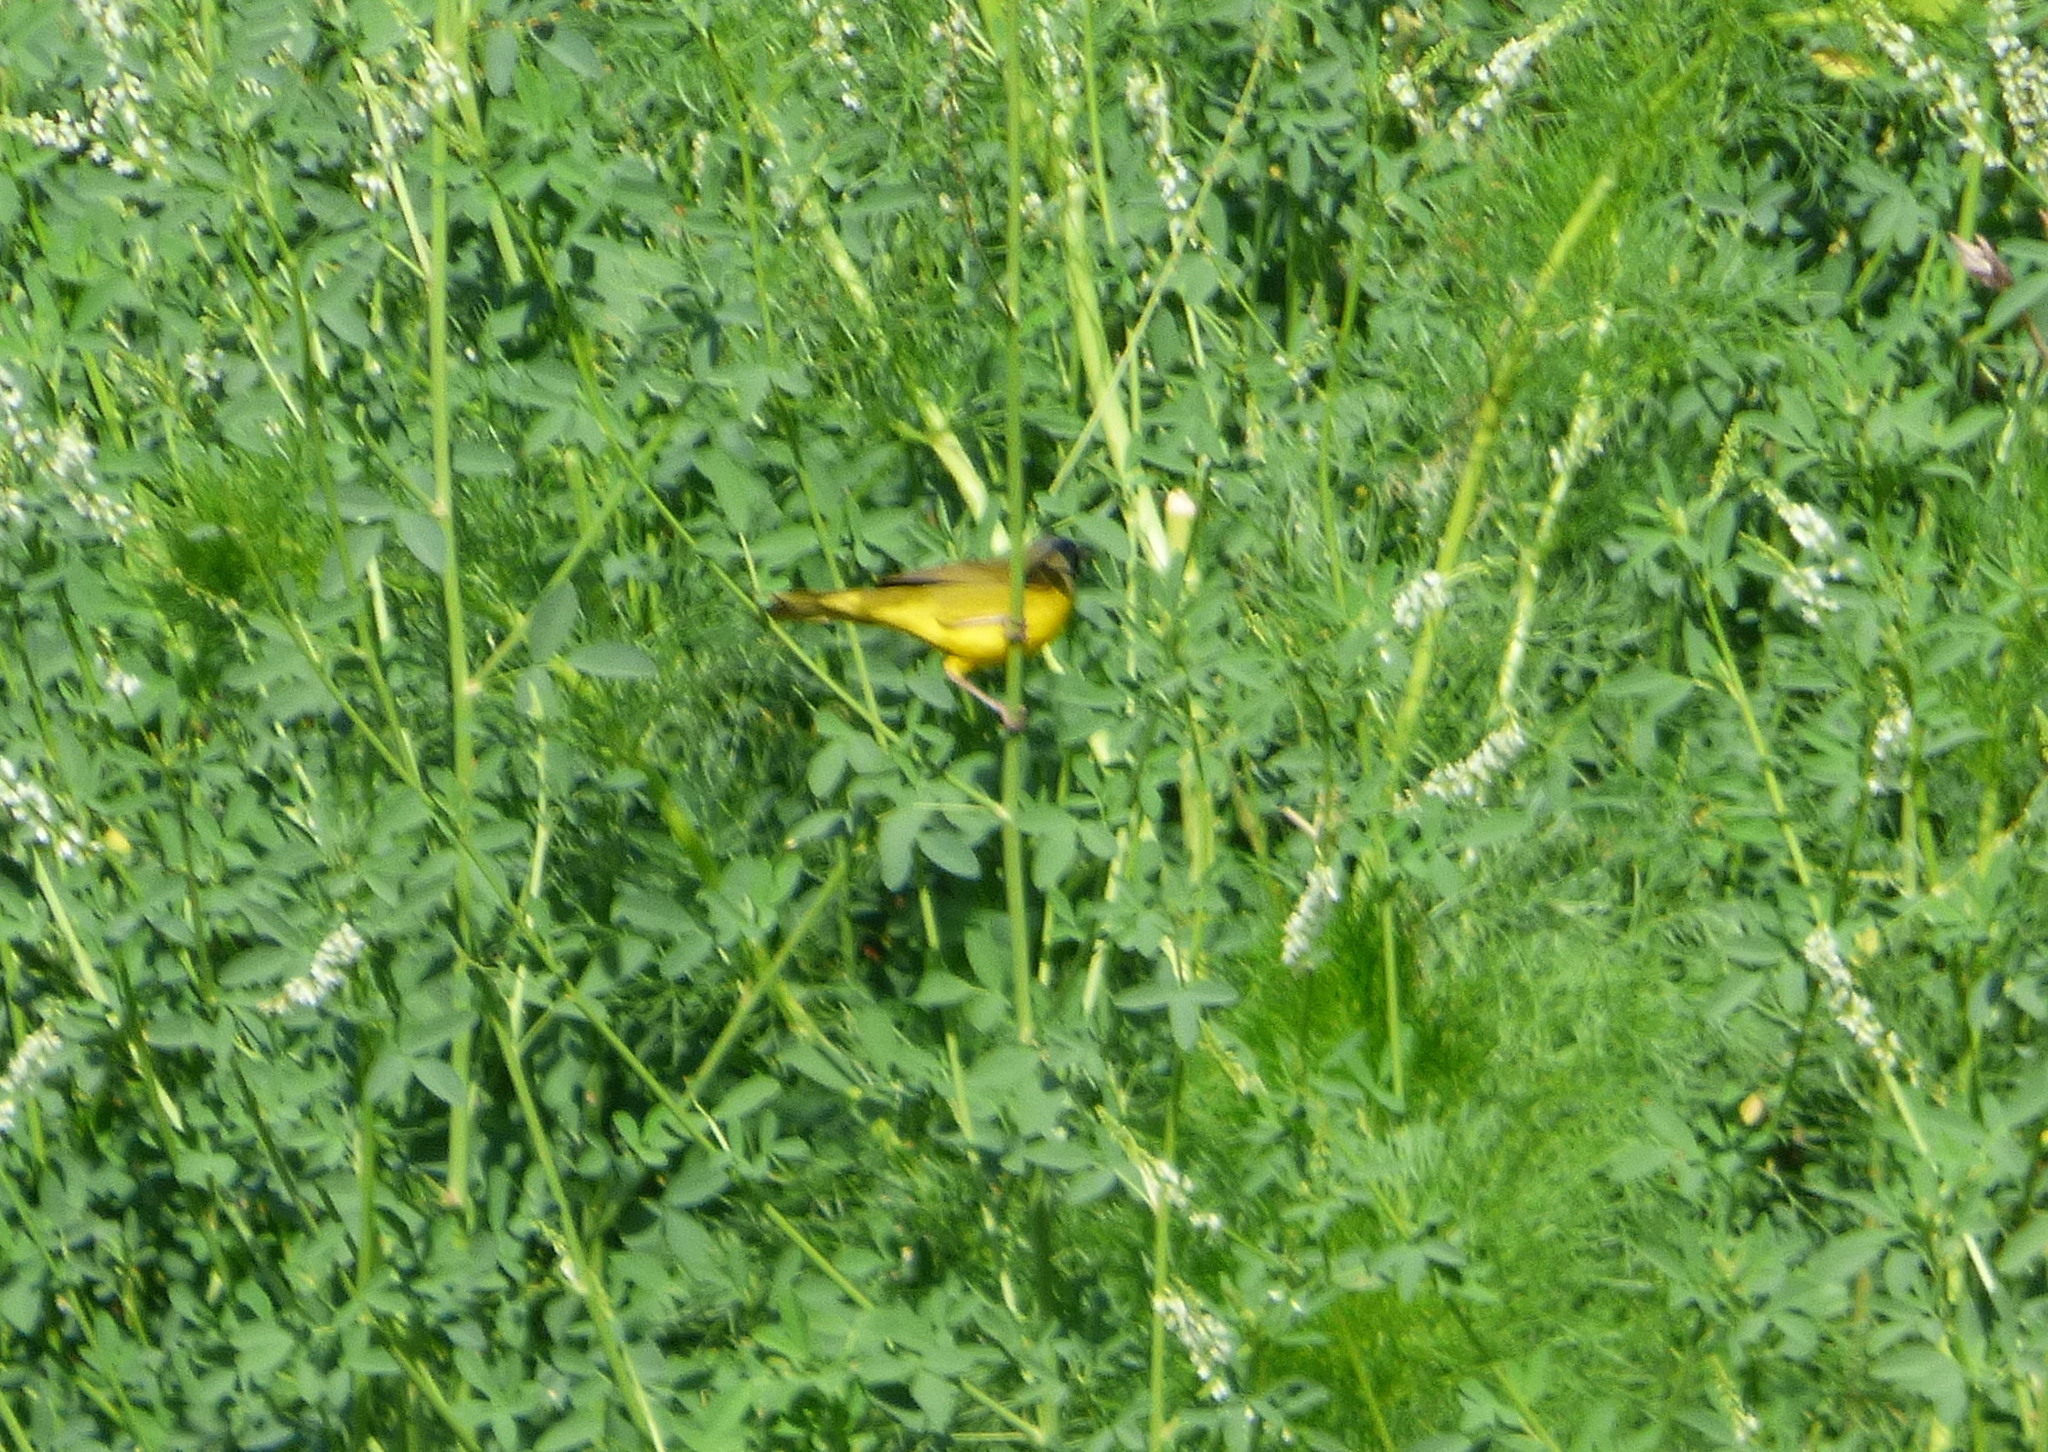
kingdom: Animalia
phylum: Chordata
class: Aves
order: Passeriformes
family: Parulidae
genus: Geothlypis
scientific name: Geothlypis velata
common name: Southern yellowthroat
